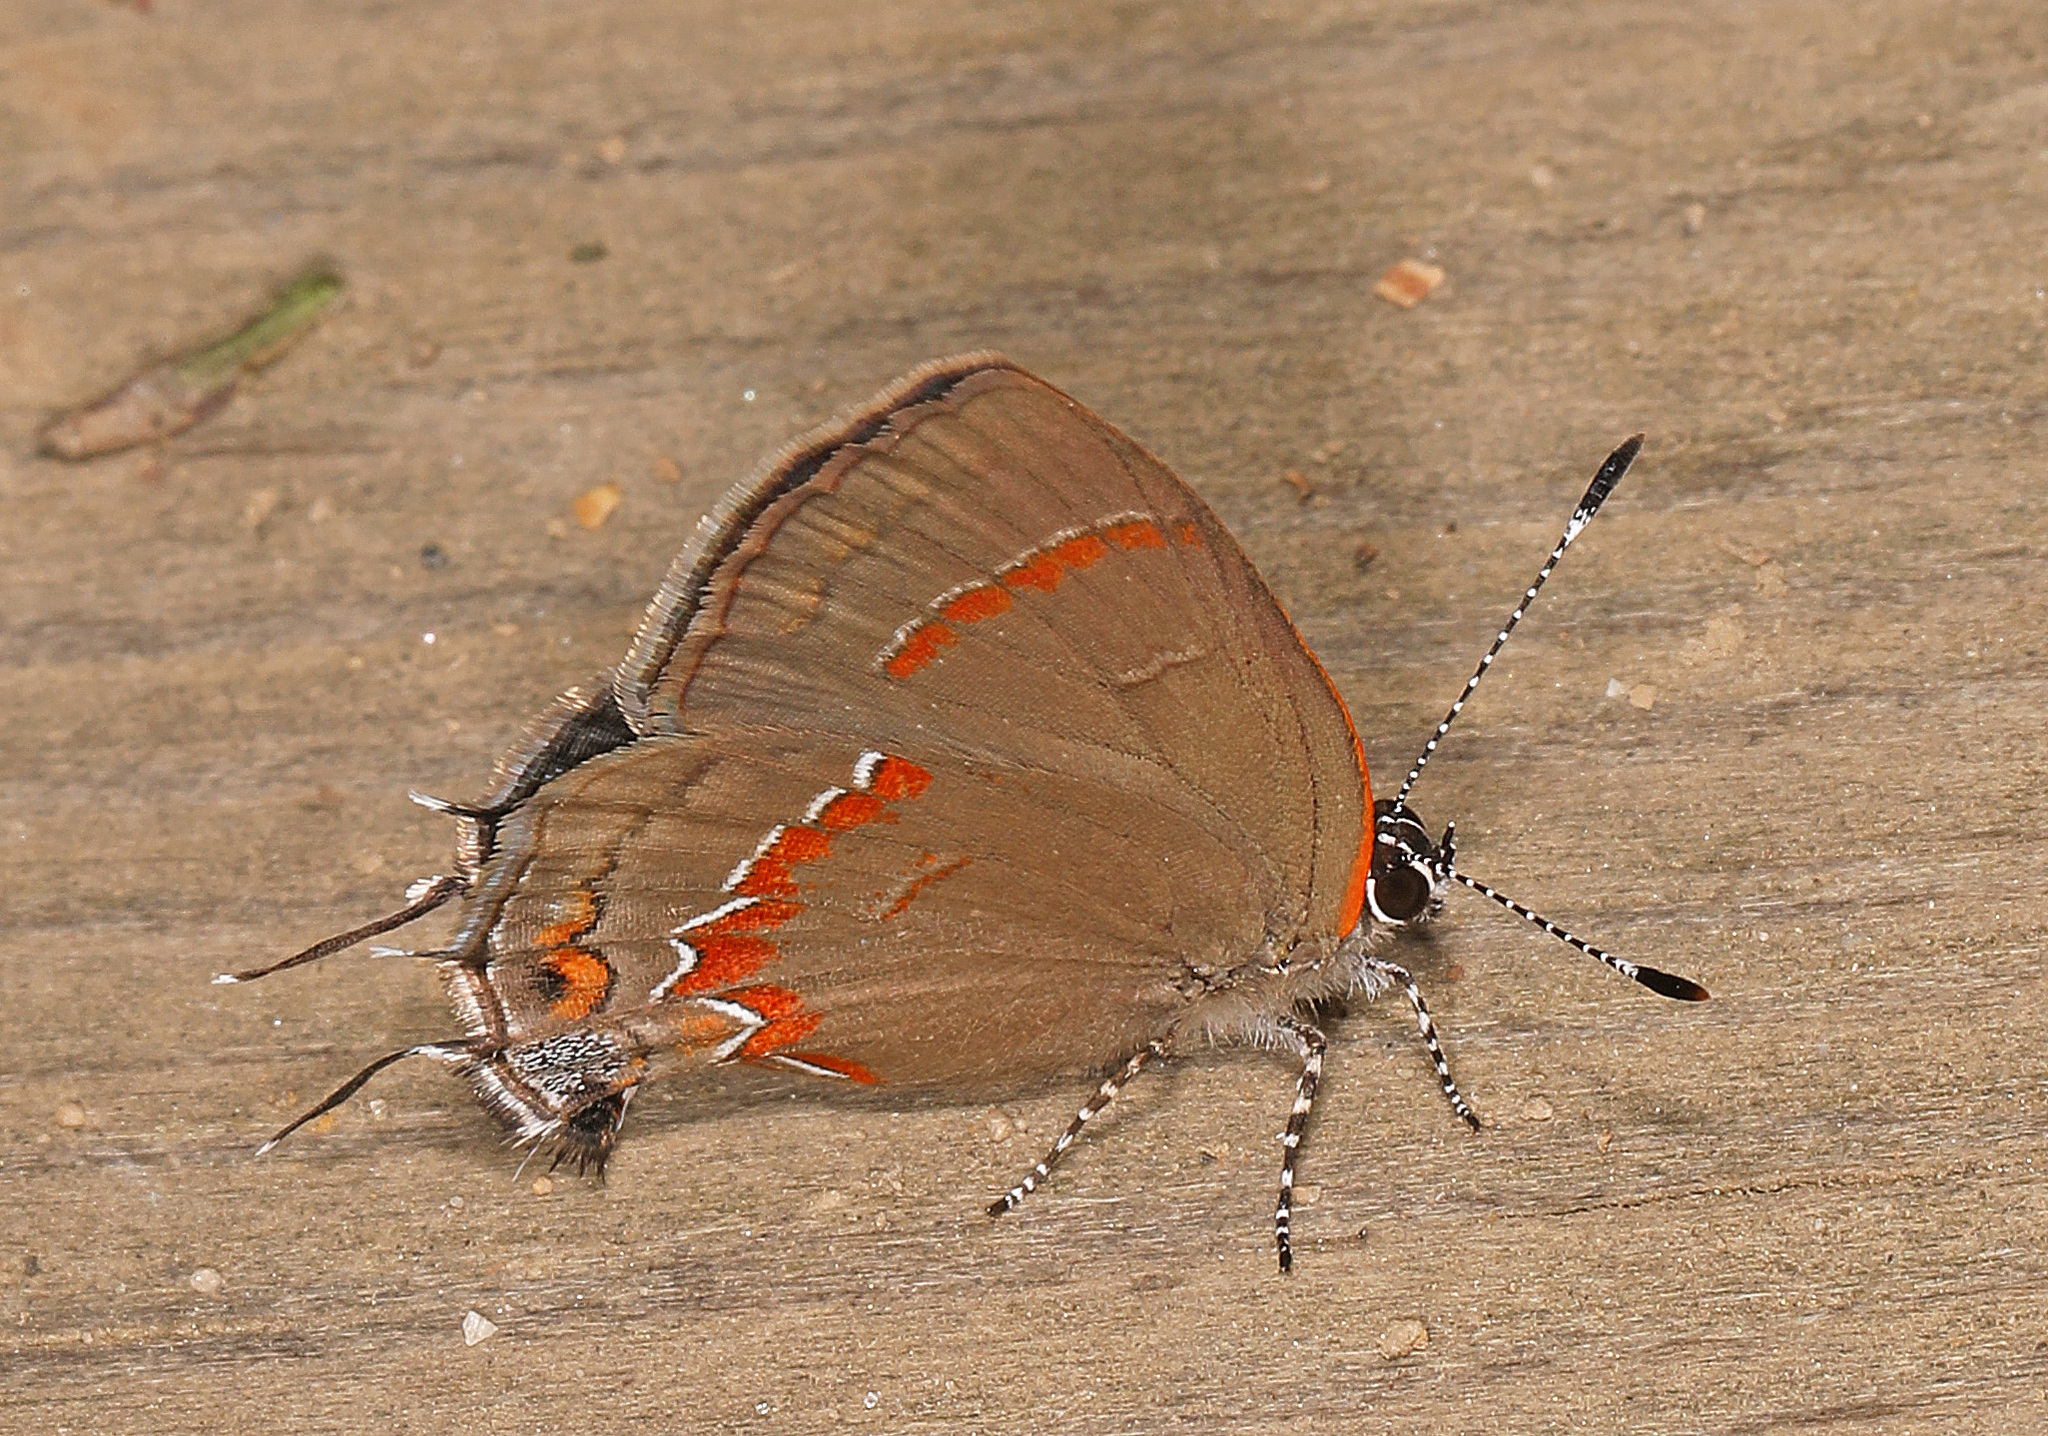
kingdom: Animalia
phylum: Arthropoda
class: Insecta
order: Lepidoptera
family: Lycaenidae
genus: Calycopis
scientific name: Calycopis cecrops
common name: Red-banded hairstreak
